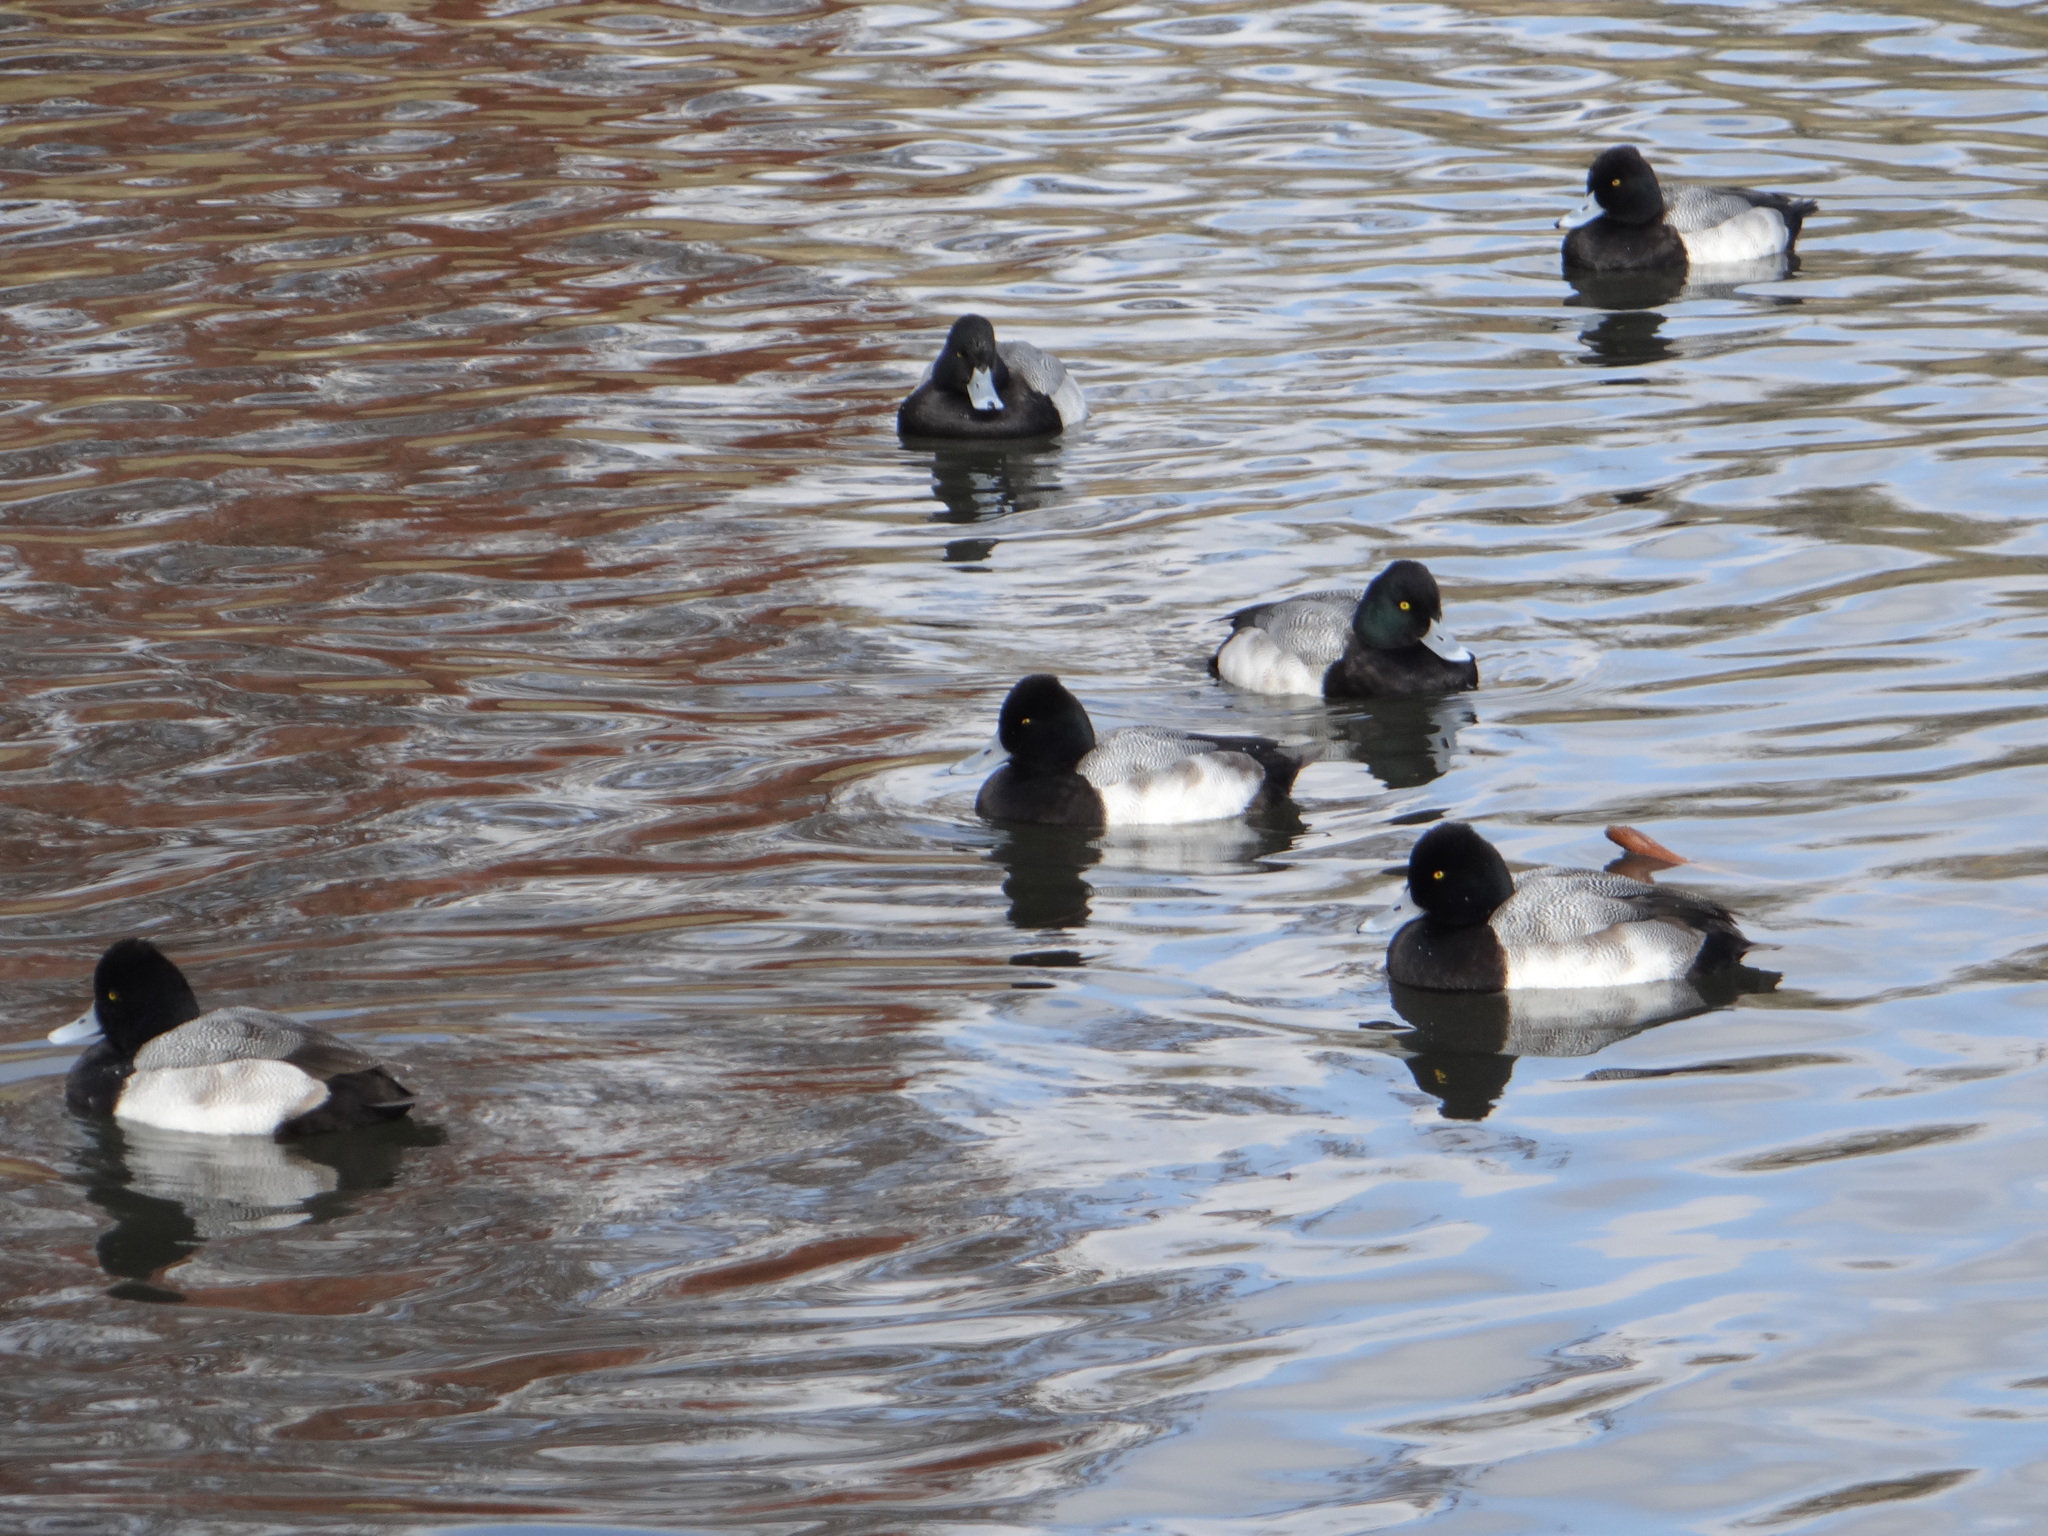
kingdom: Animalia
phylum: Chordata
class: Aves
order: Anseriformes
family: Anatidae
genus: Aythya
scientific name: Aythya affinis
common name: Lesser scaup
